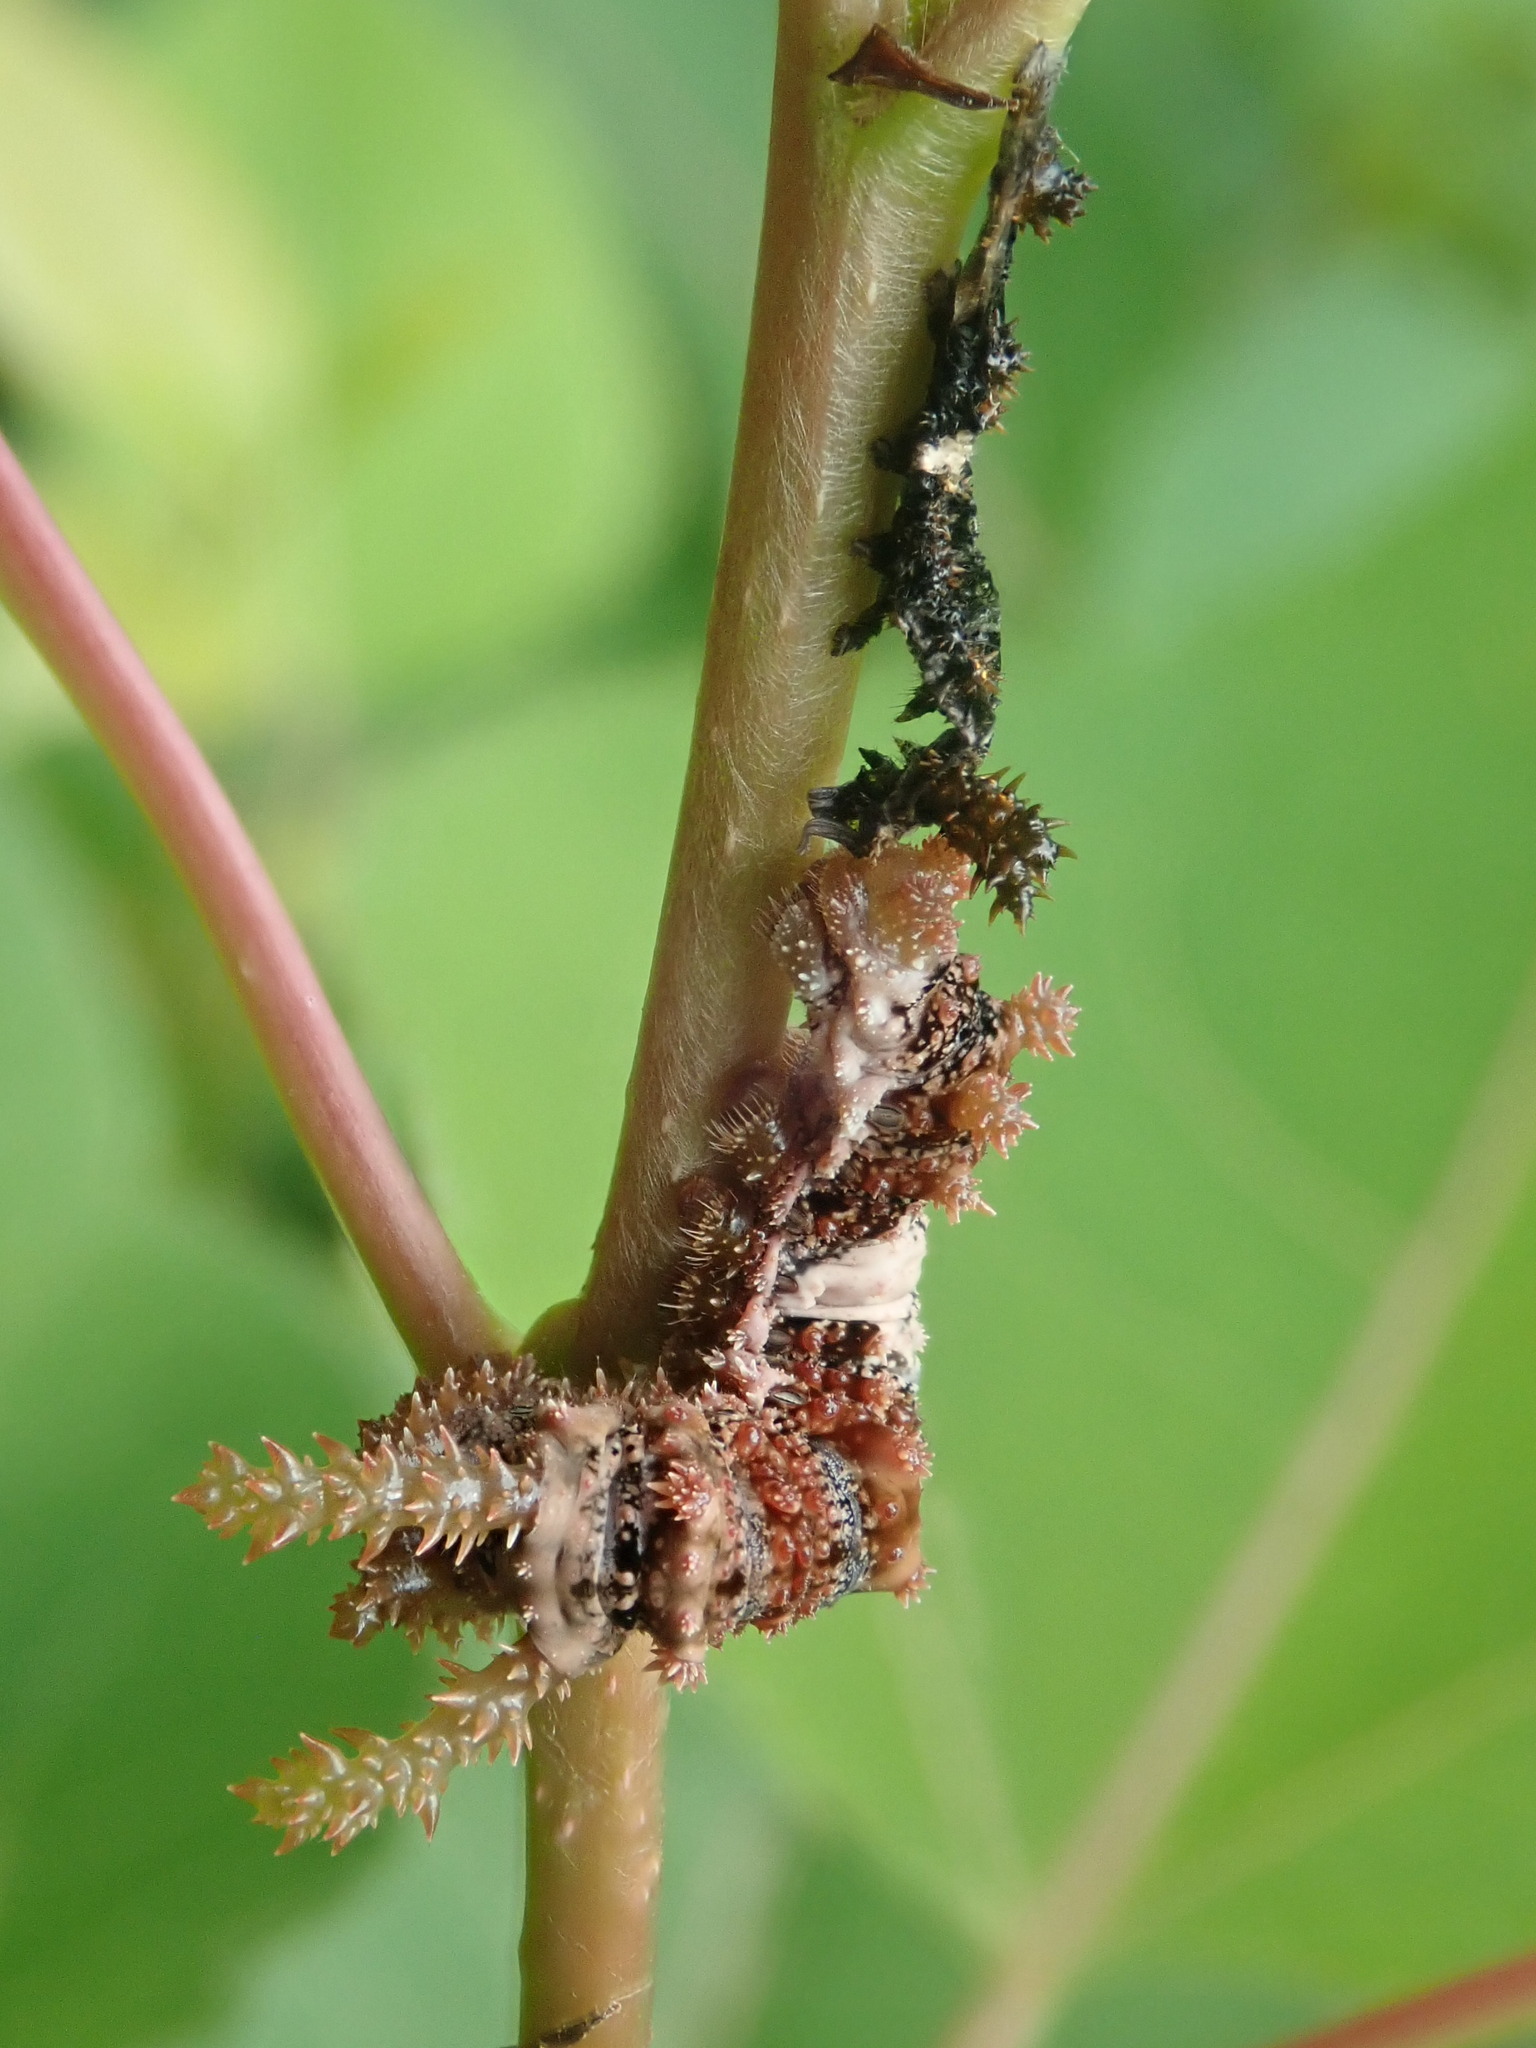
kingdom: Animalia
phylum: Arthropoda
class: Insecta
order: Lepidoptera
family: Nymphalidae
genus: Limenitis
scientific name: Limenitis archippus
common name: Viceroy
